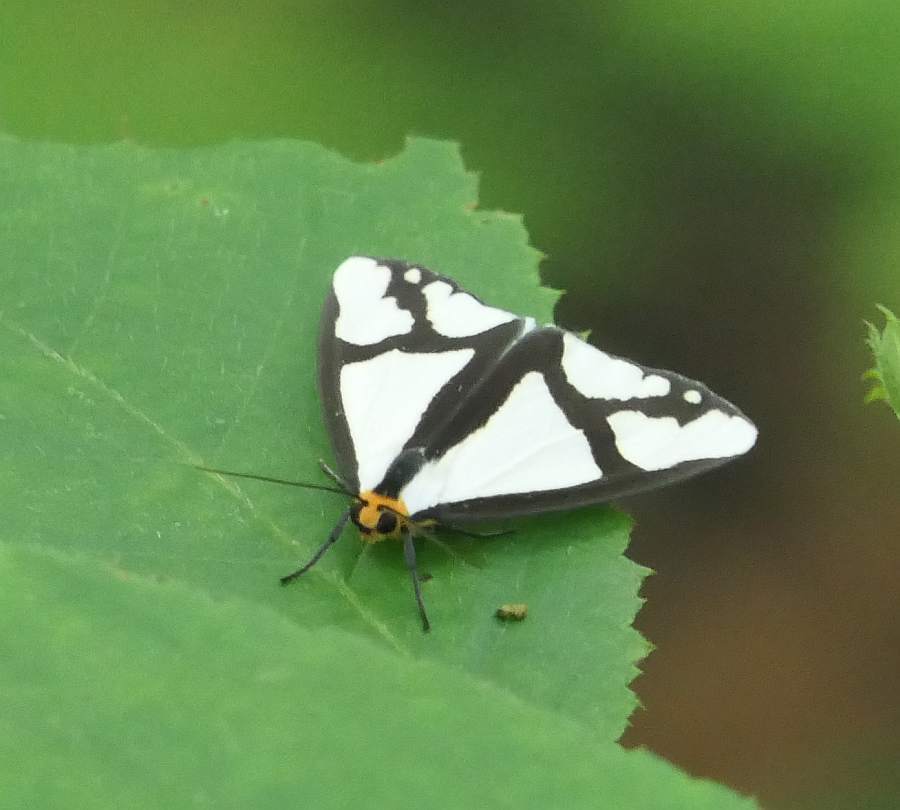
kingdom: Animalia
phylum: Arthropoda
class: Insecta
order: Lepidoptera
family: Erebidae
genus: Haploa
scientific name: Haploa contigua
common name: Neighbor moth
